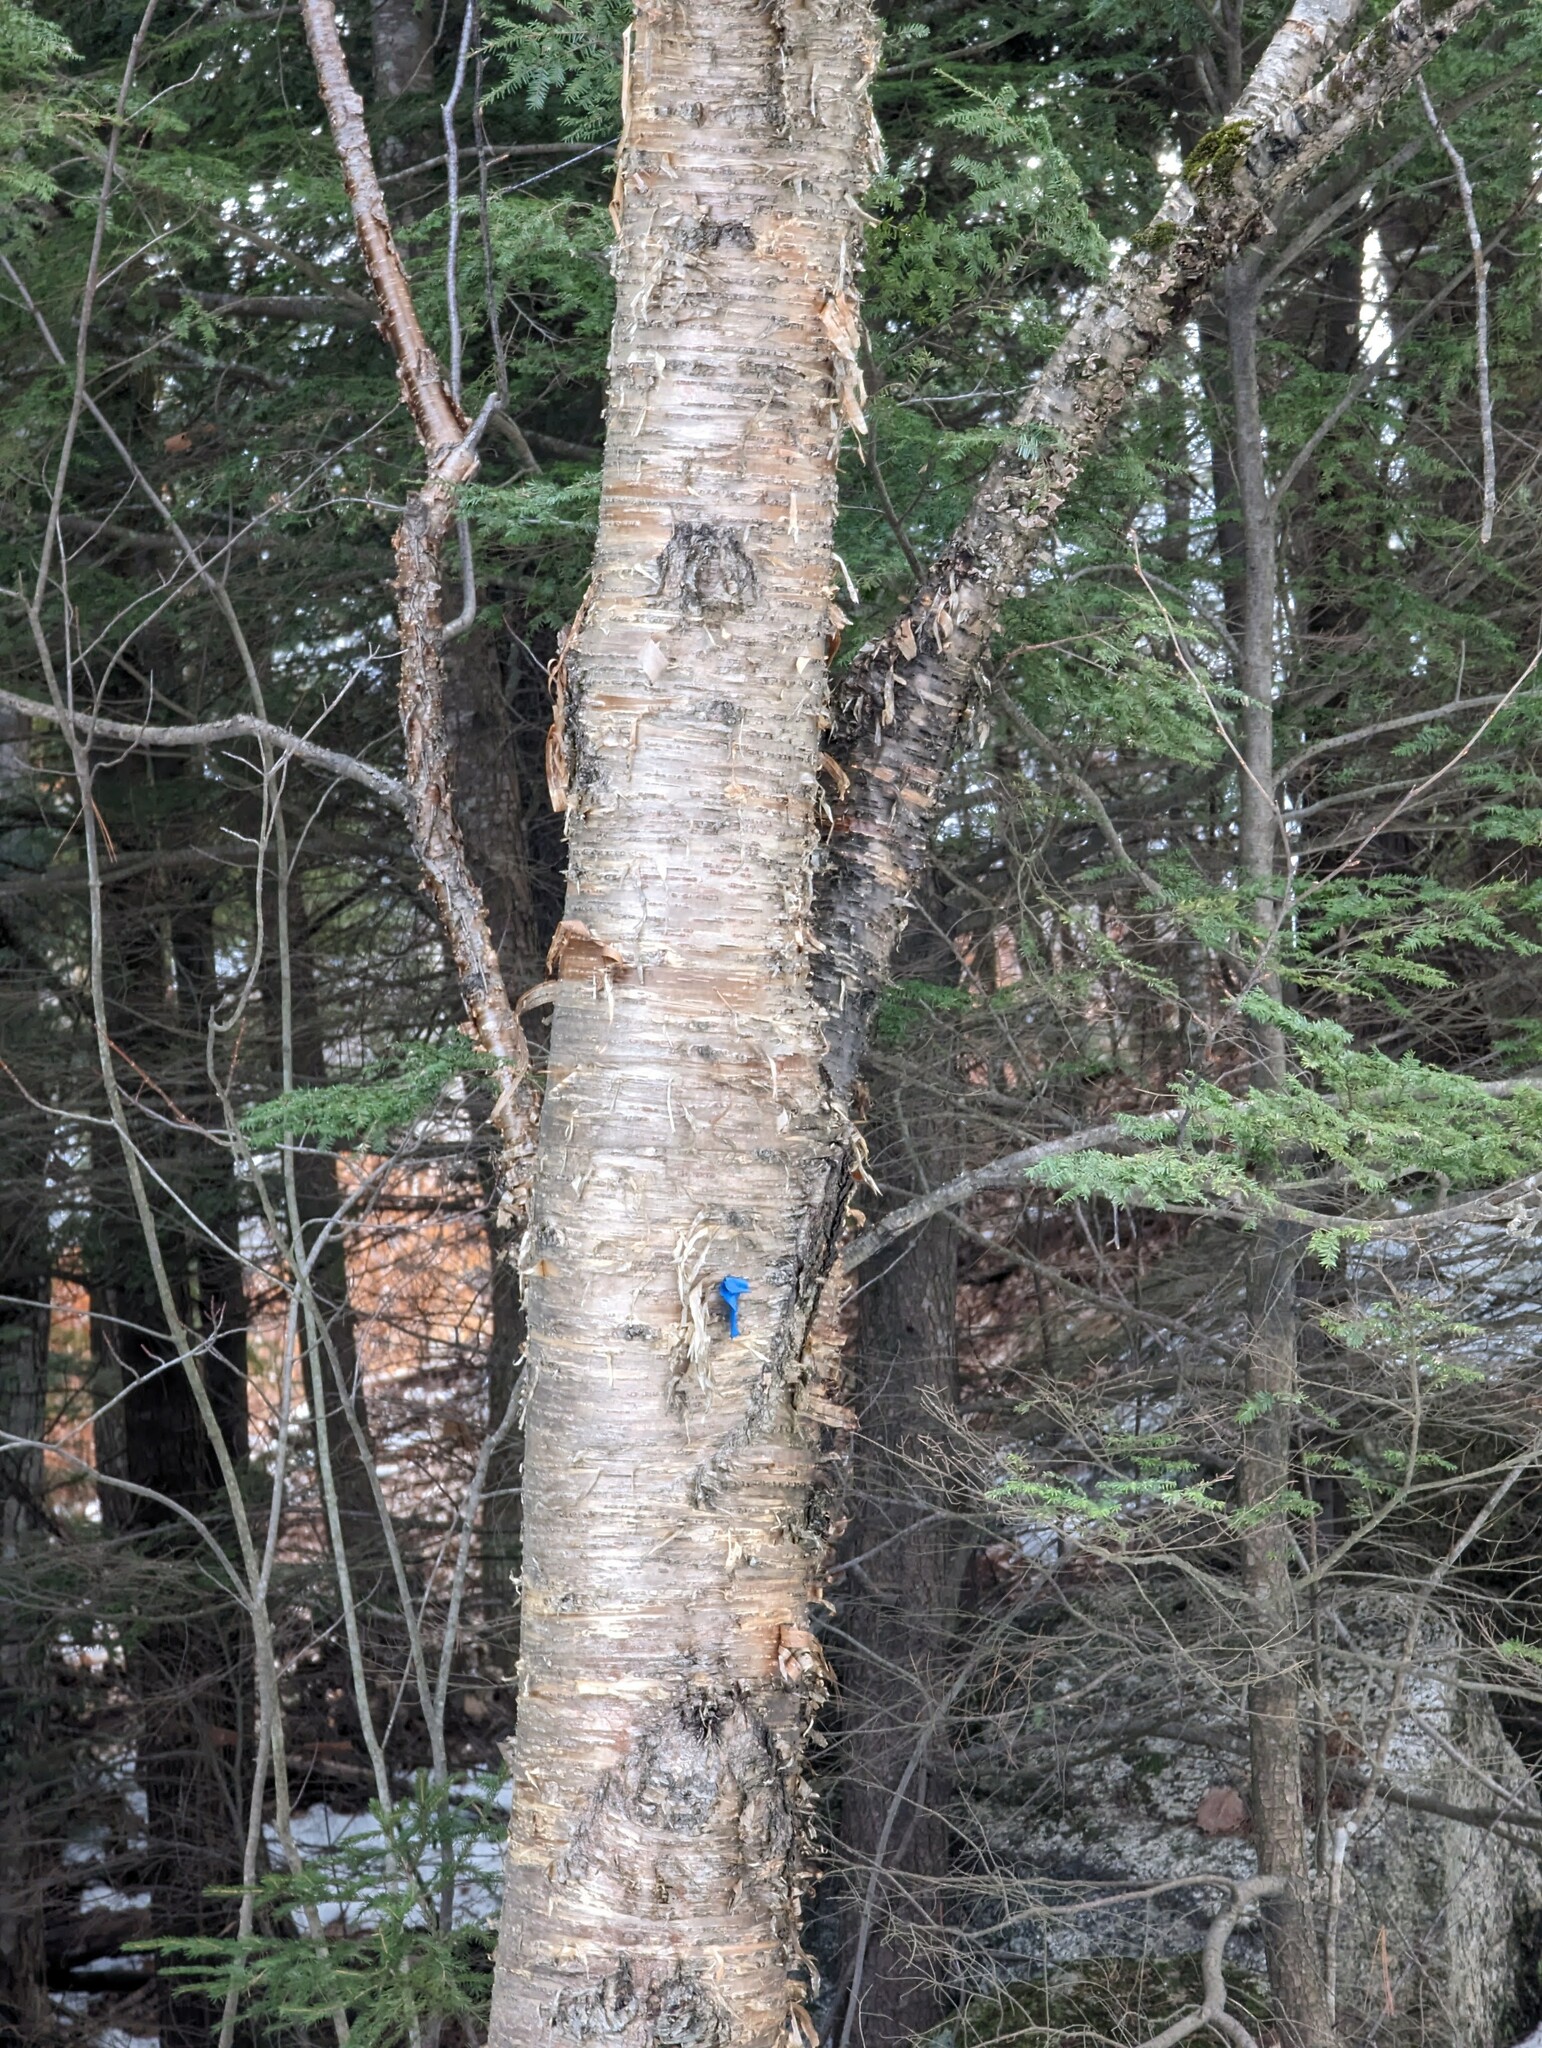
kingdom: Plantae
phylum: Tracheophyta
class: Magnoliopsida
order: Fagales
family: Betulaceae
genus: Betula
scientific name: Betula alleghaniensis
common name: Yellow birch
